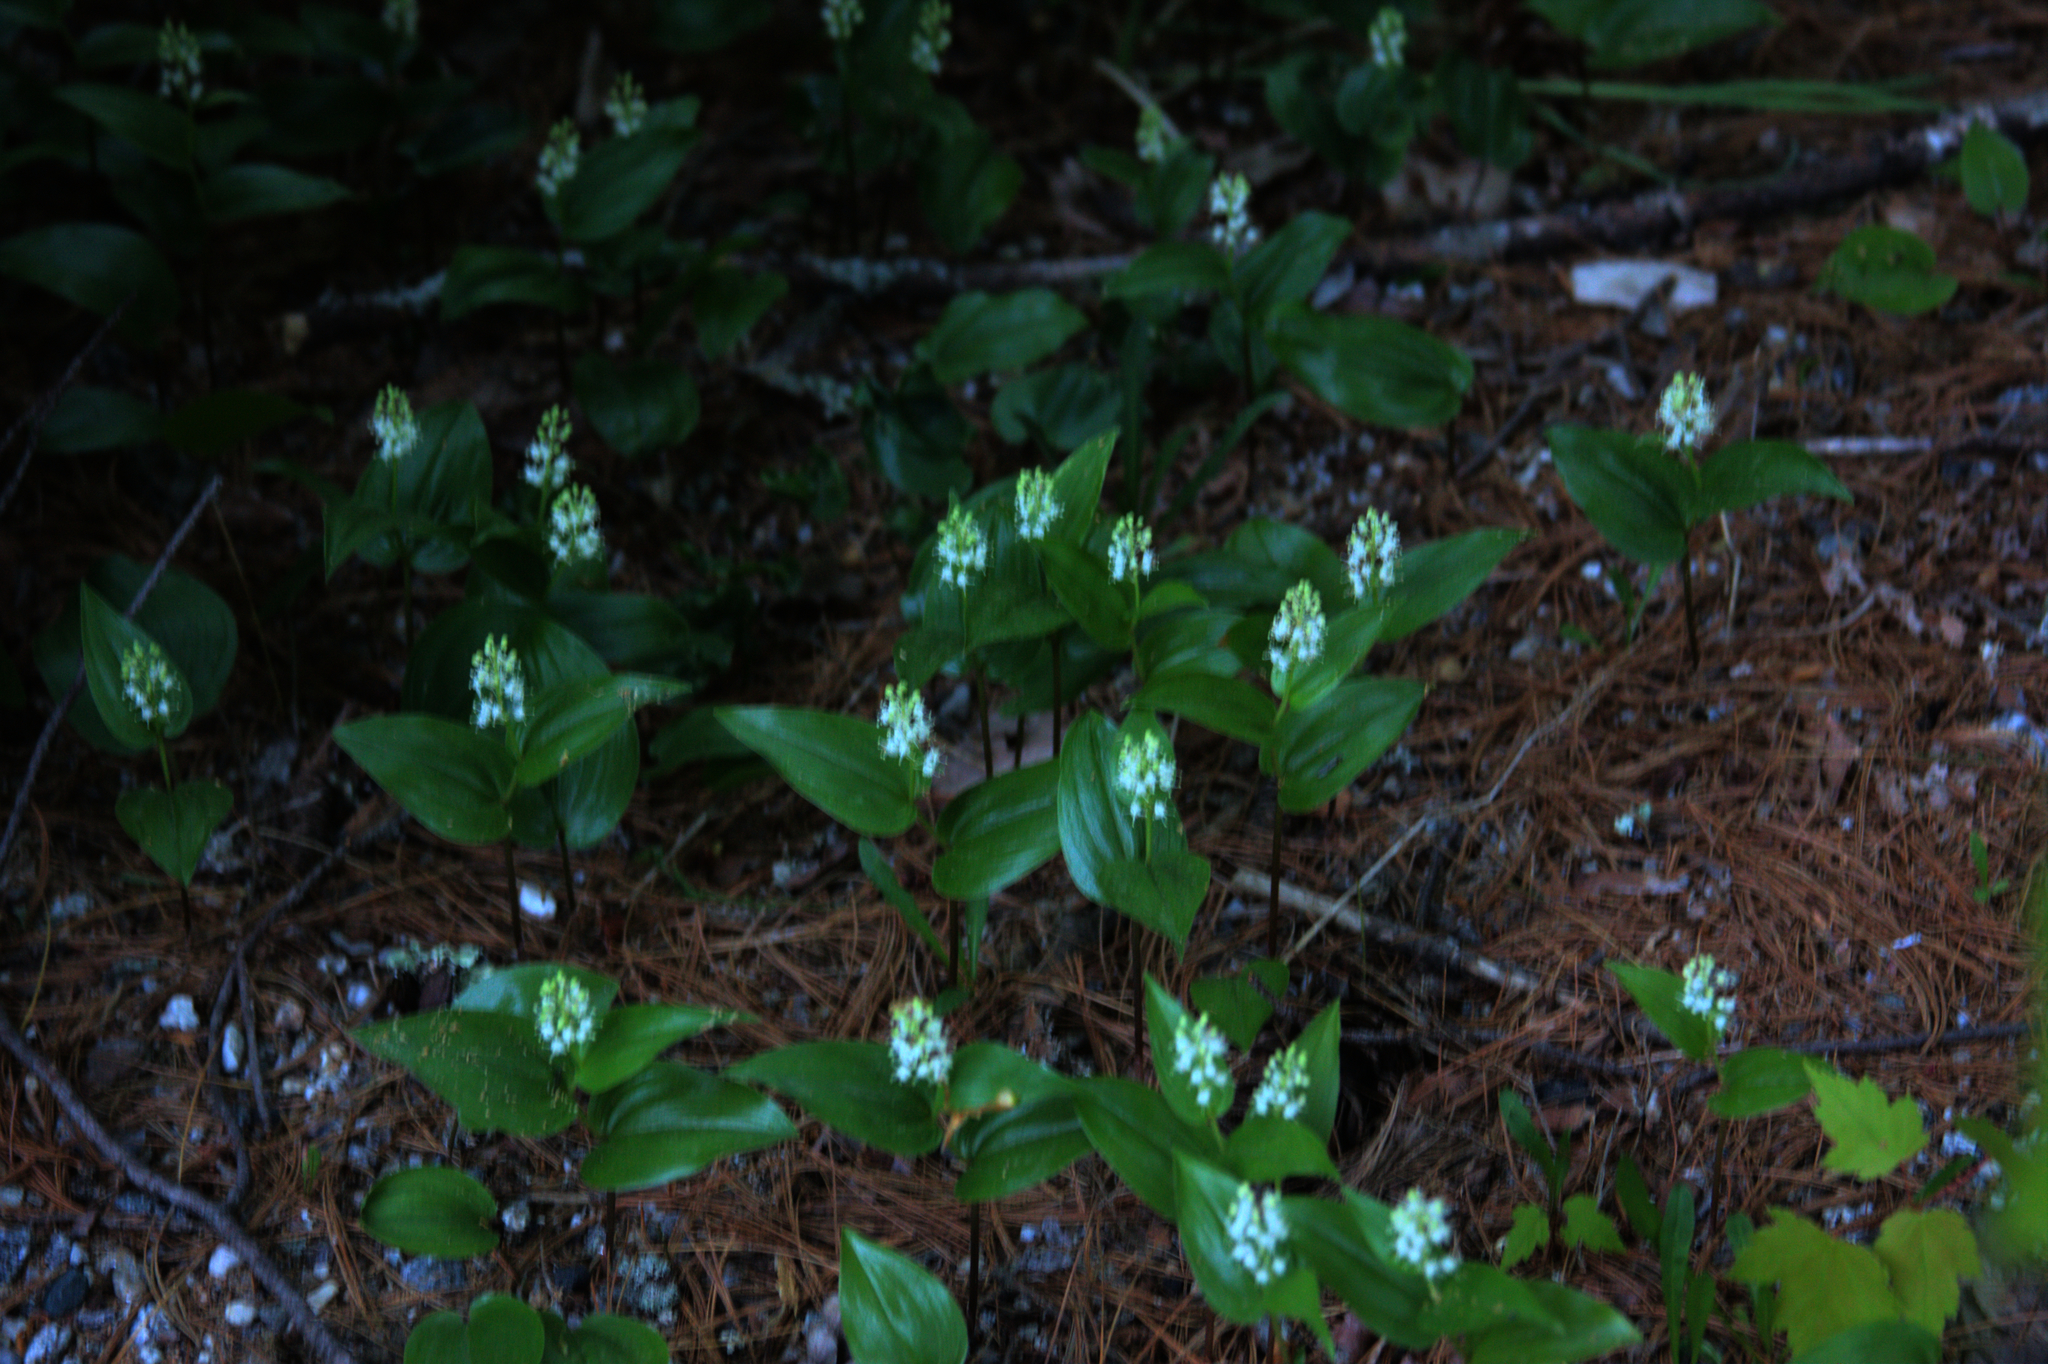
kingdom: Plantae
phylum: Tracheophyta
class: Liliopsida
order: Asparagales
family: Asparagaceae
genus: Maianthemum
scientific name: Maianthemum canadense
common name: False lily-of-the-valley
